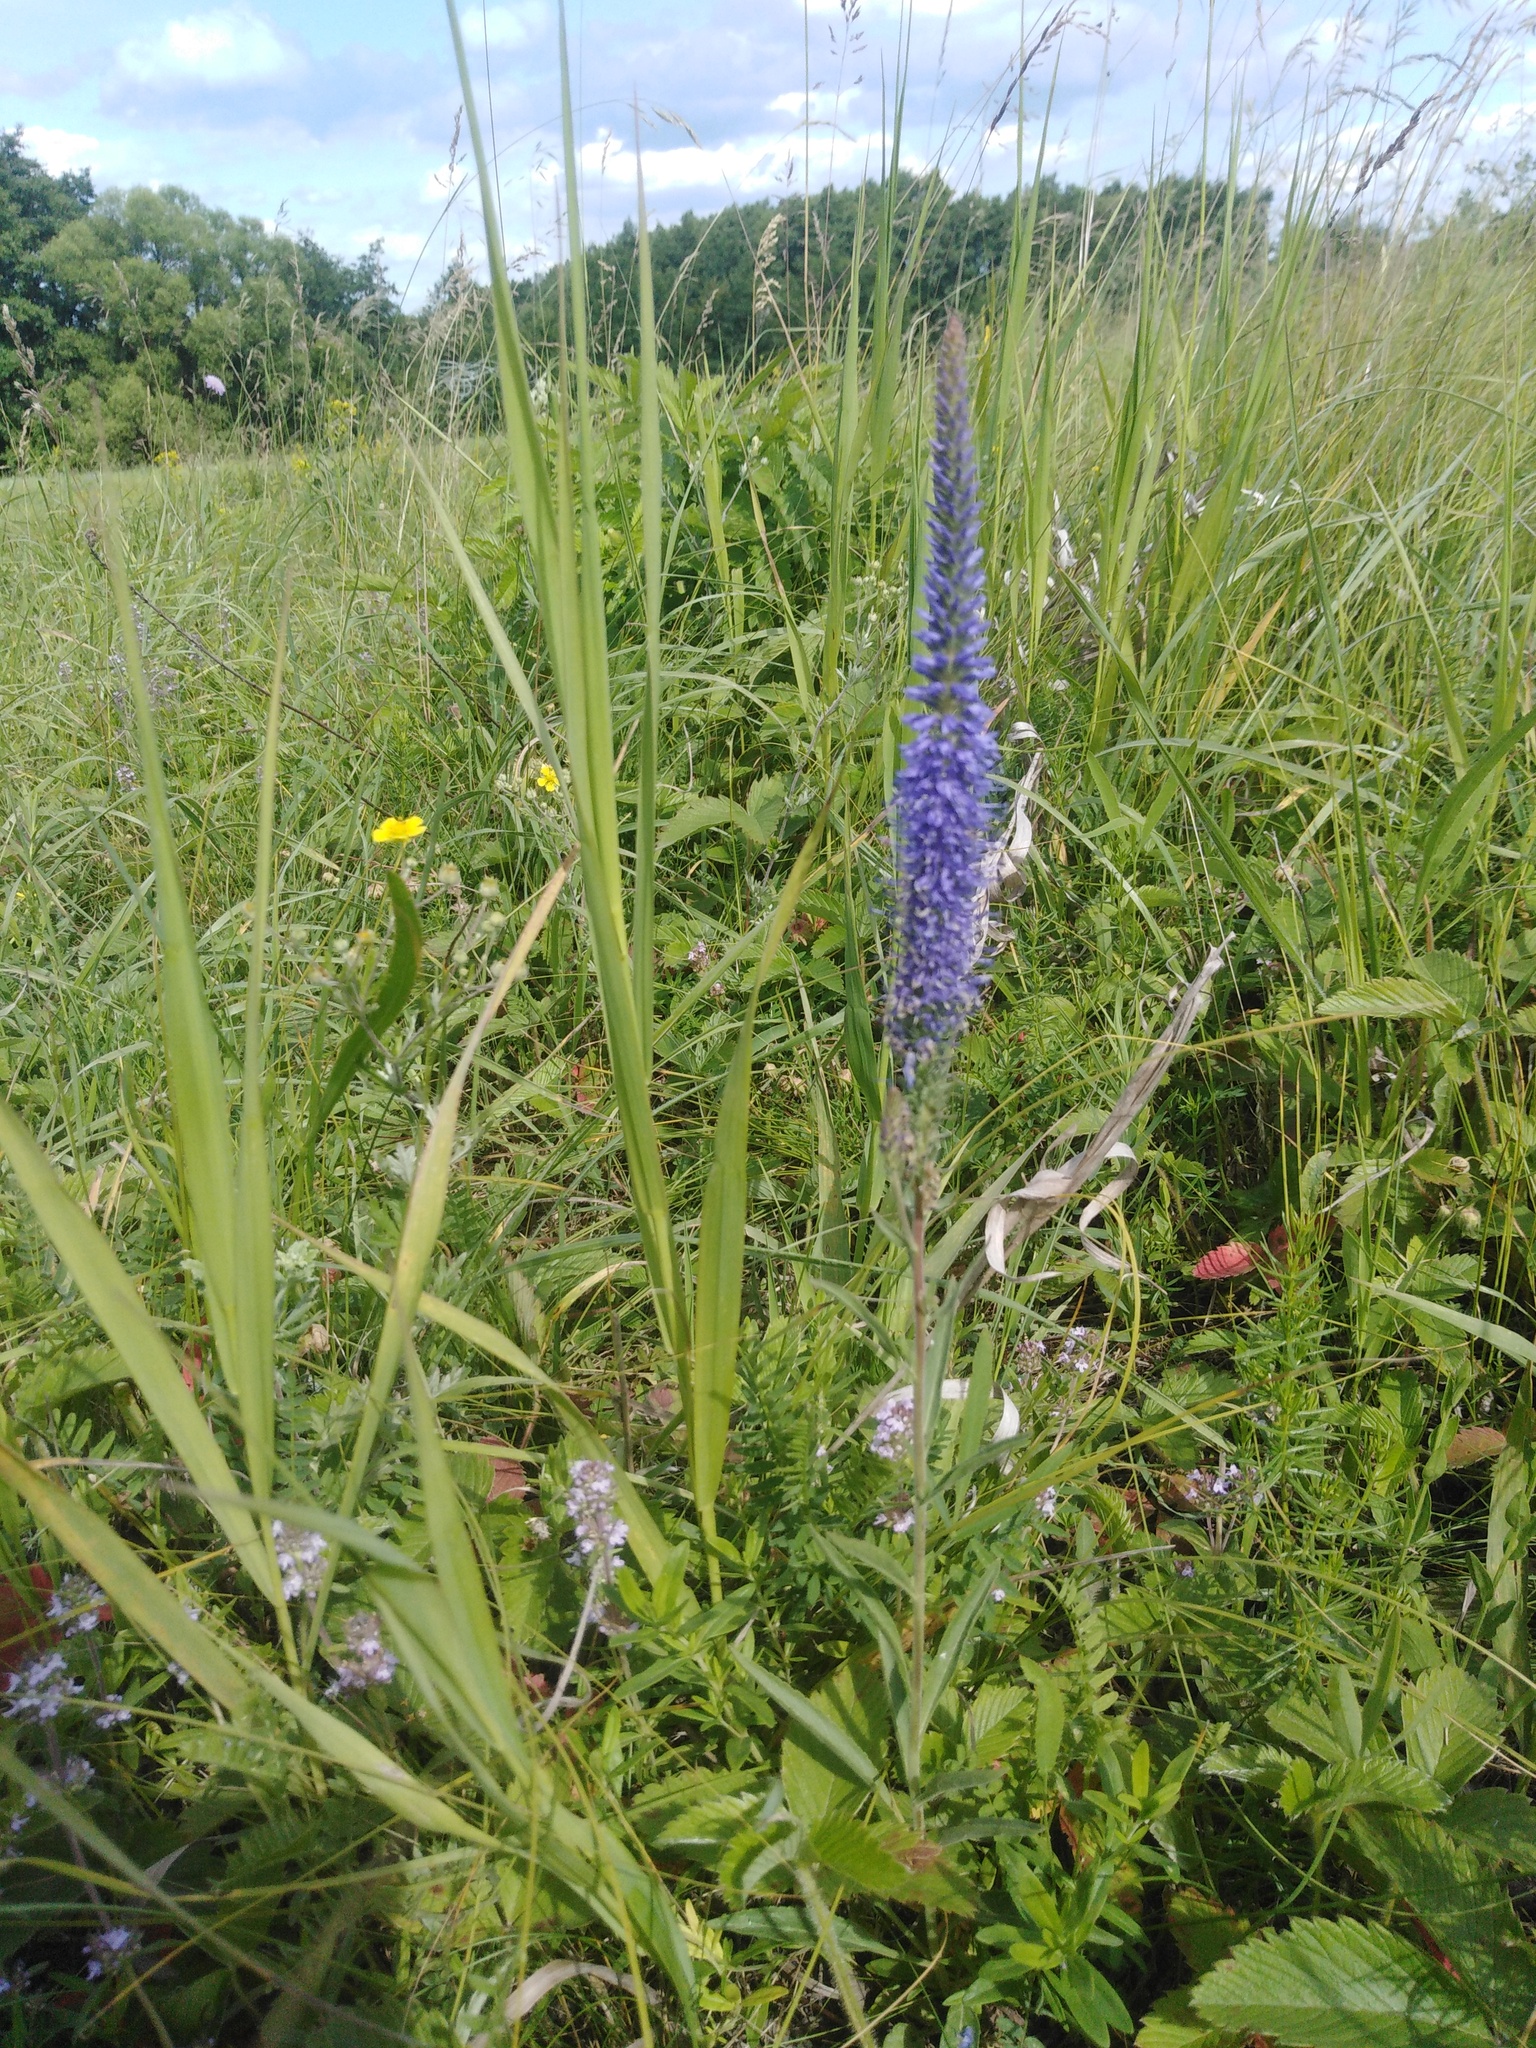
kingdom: Plantae
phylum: Tracheophyta
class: Magnoliopsida
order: Lamiales
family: Plantaginaceae
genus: Veronica
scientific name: Veronica spicata
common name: Spiked speedwell
